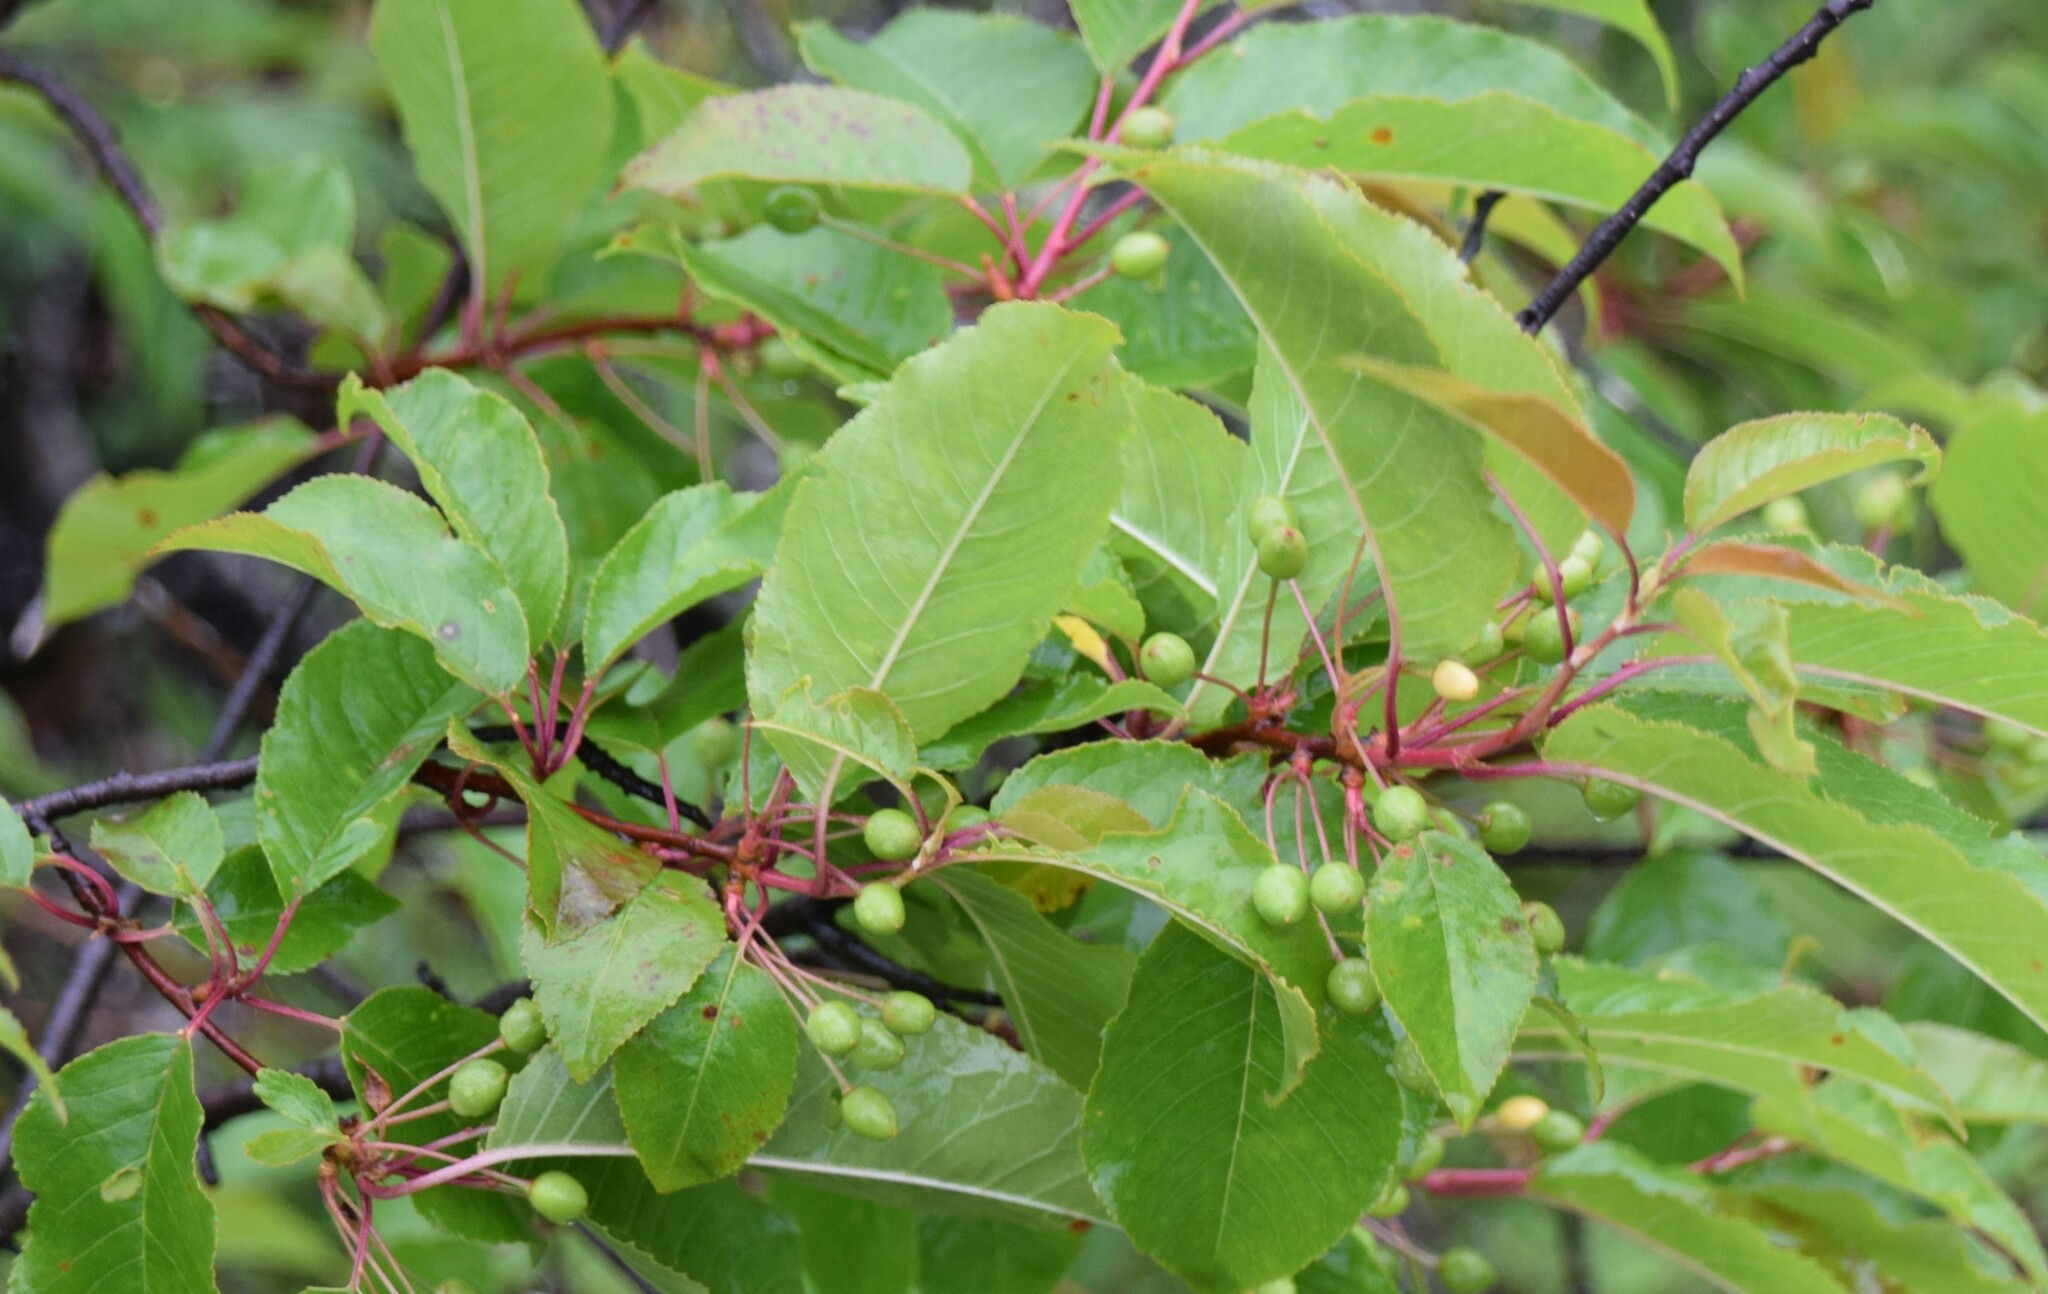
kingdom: Plantae
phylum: Tracheophyta
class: Magnoliopsida
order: Rosales
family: Rosaceae
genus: Prunus
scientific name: Prunus pensylvanica
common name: Pin cherry
